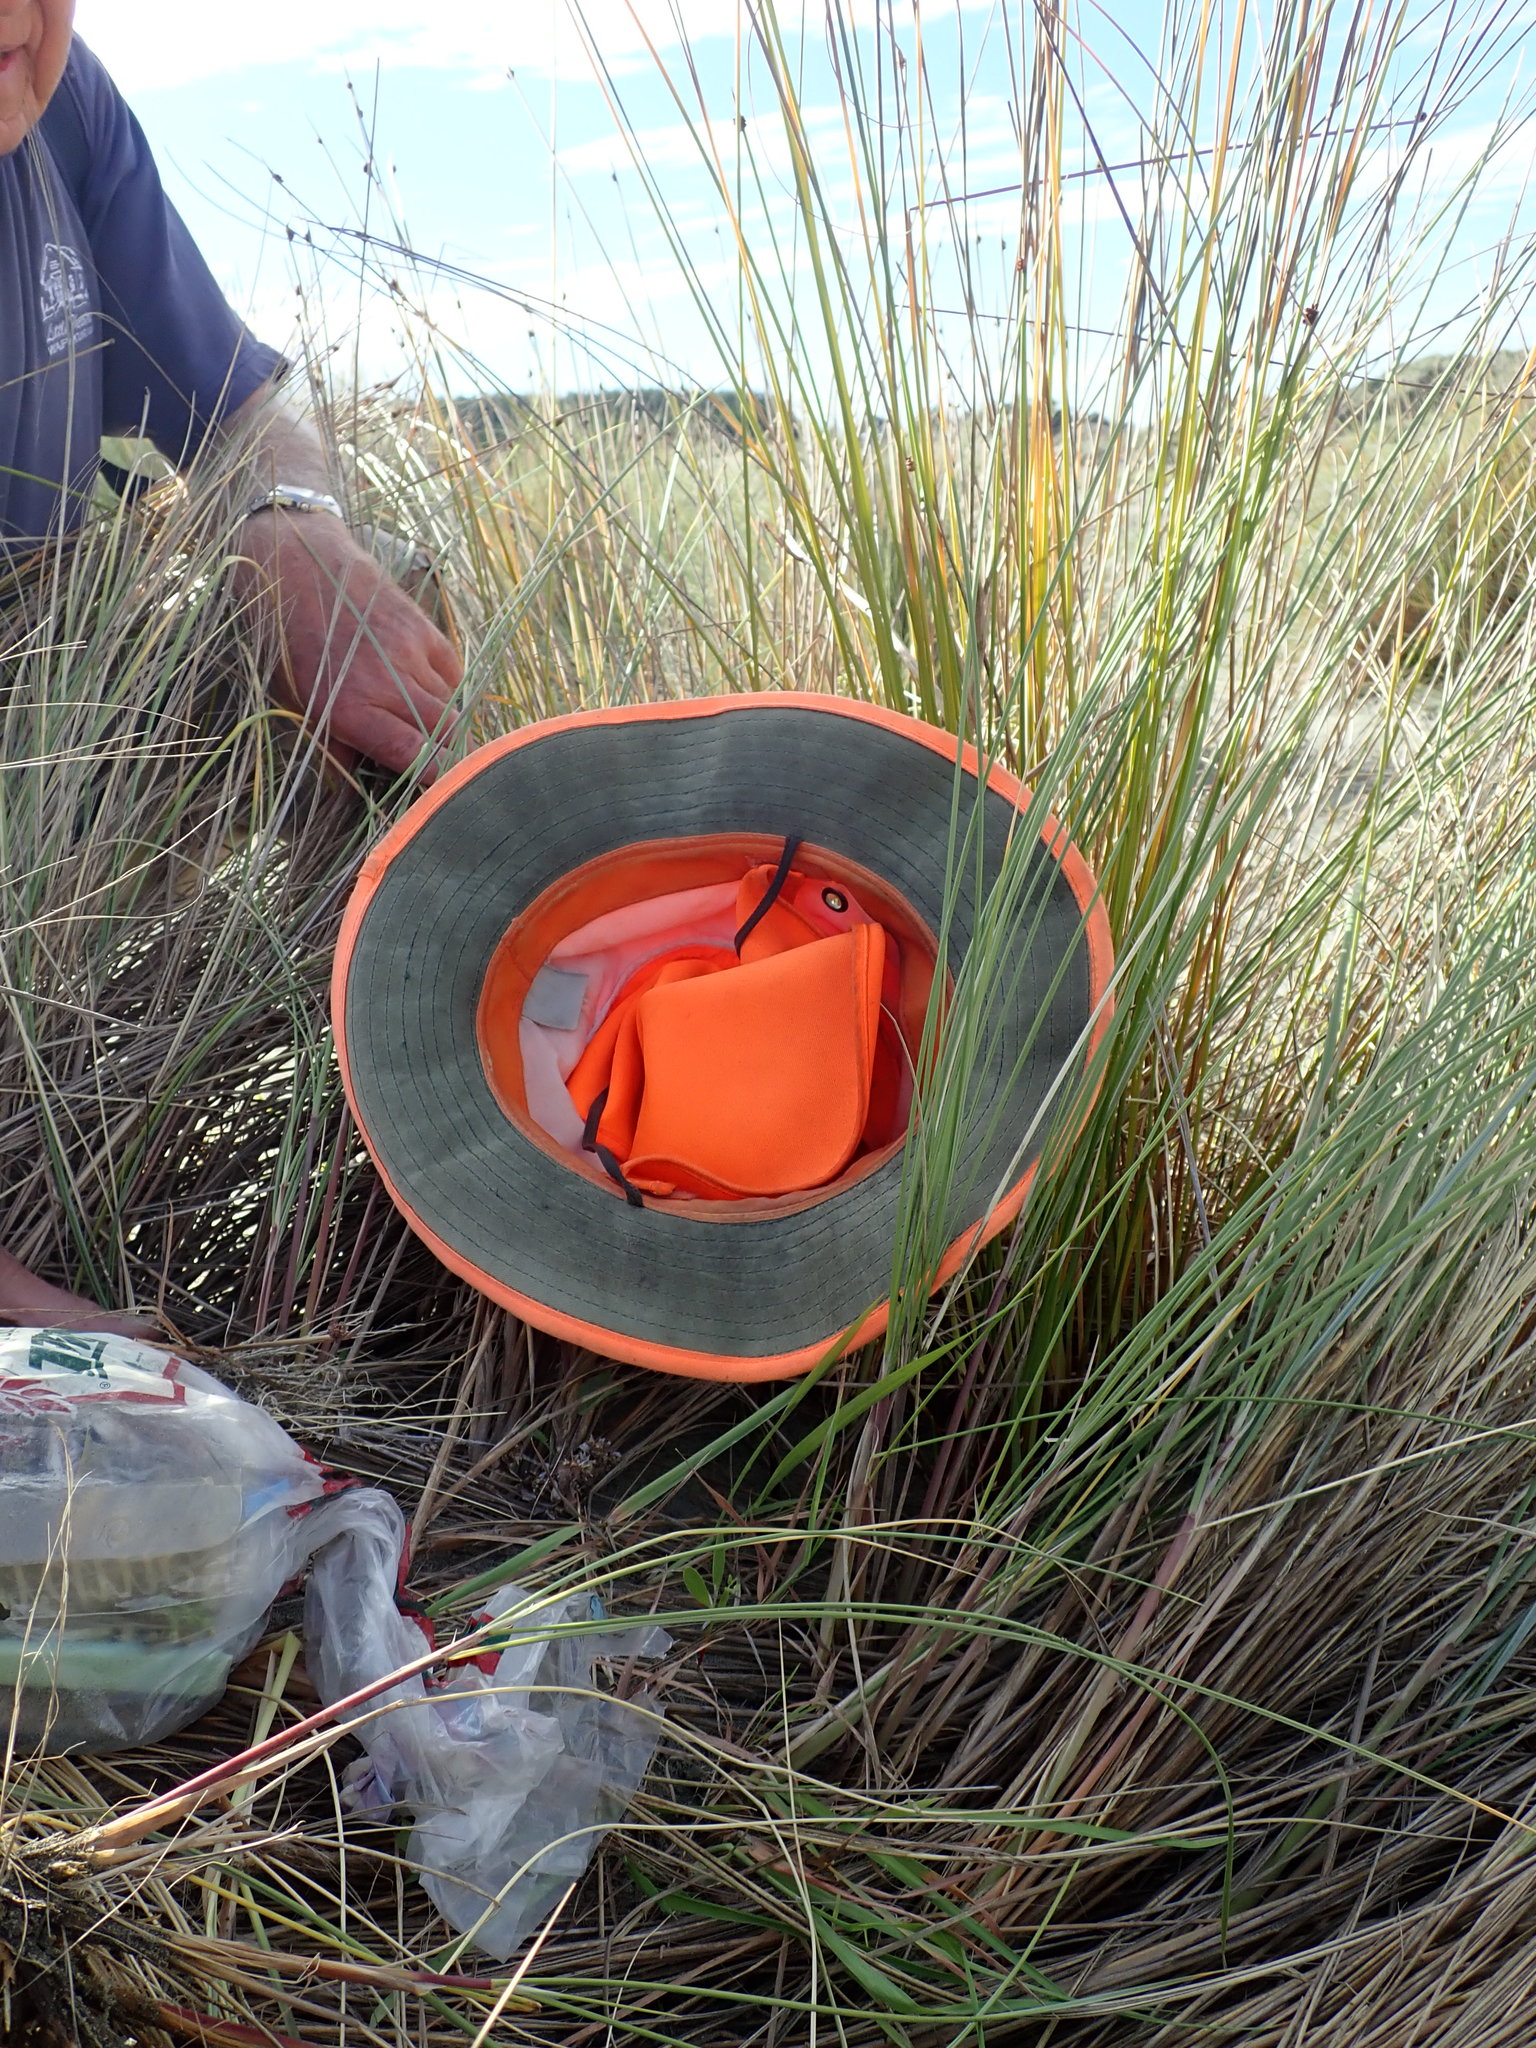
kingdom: Plantae
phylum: Tracheophyta
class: Magnoliopsida
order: Fabales
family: Fabaceae
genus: Acacia
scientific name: Acacia longifolia
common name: Sydney golden wattle
